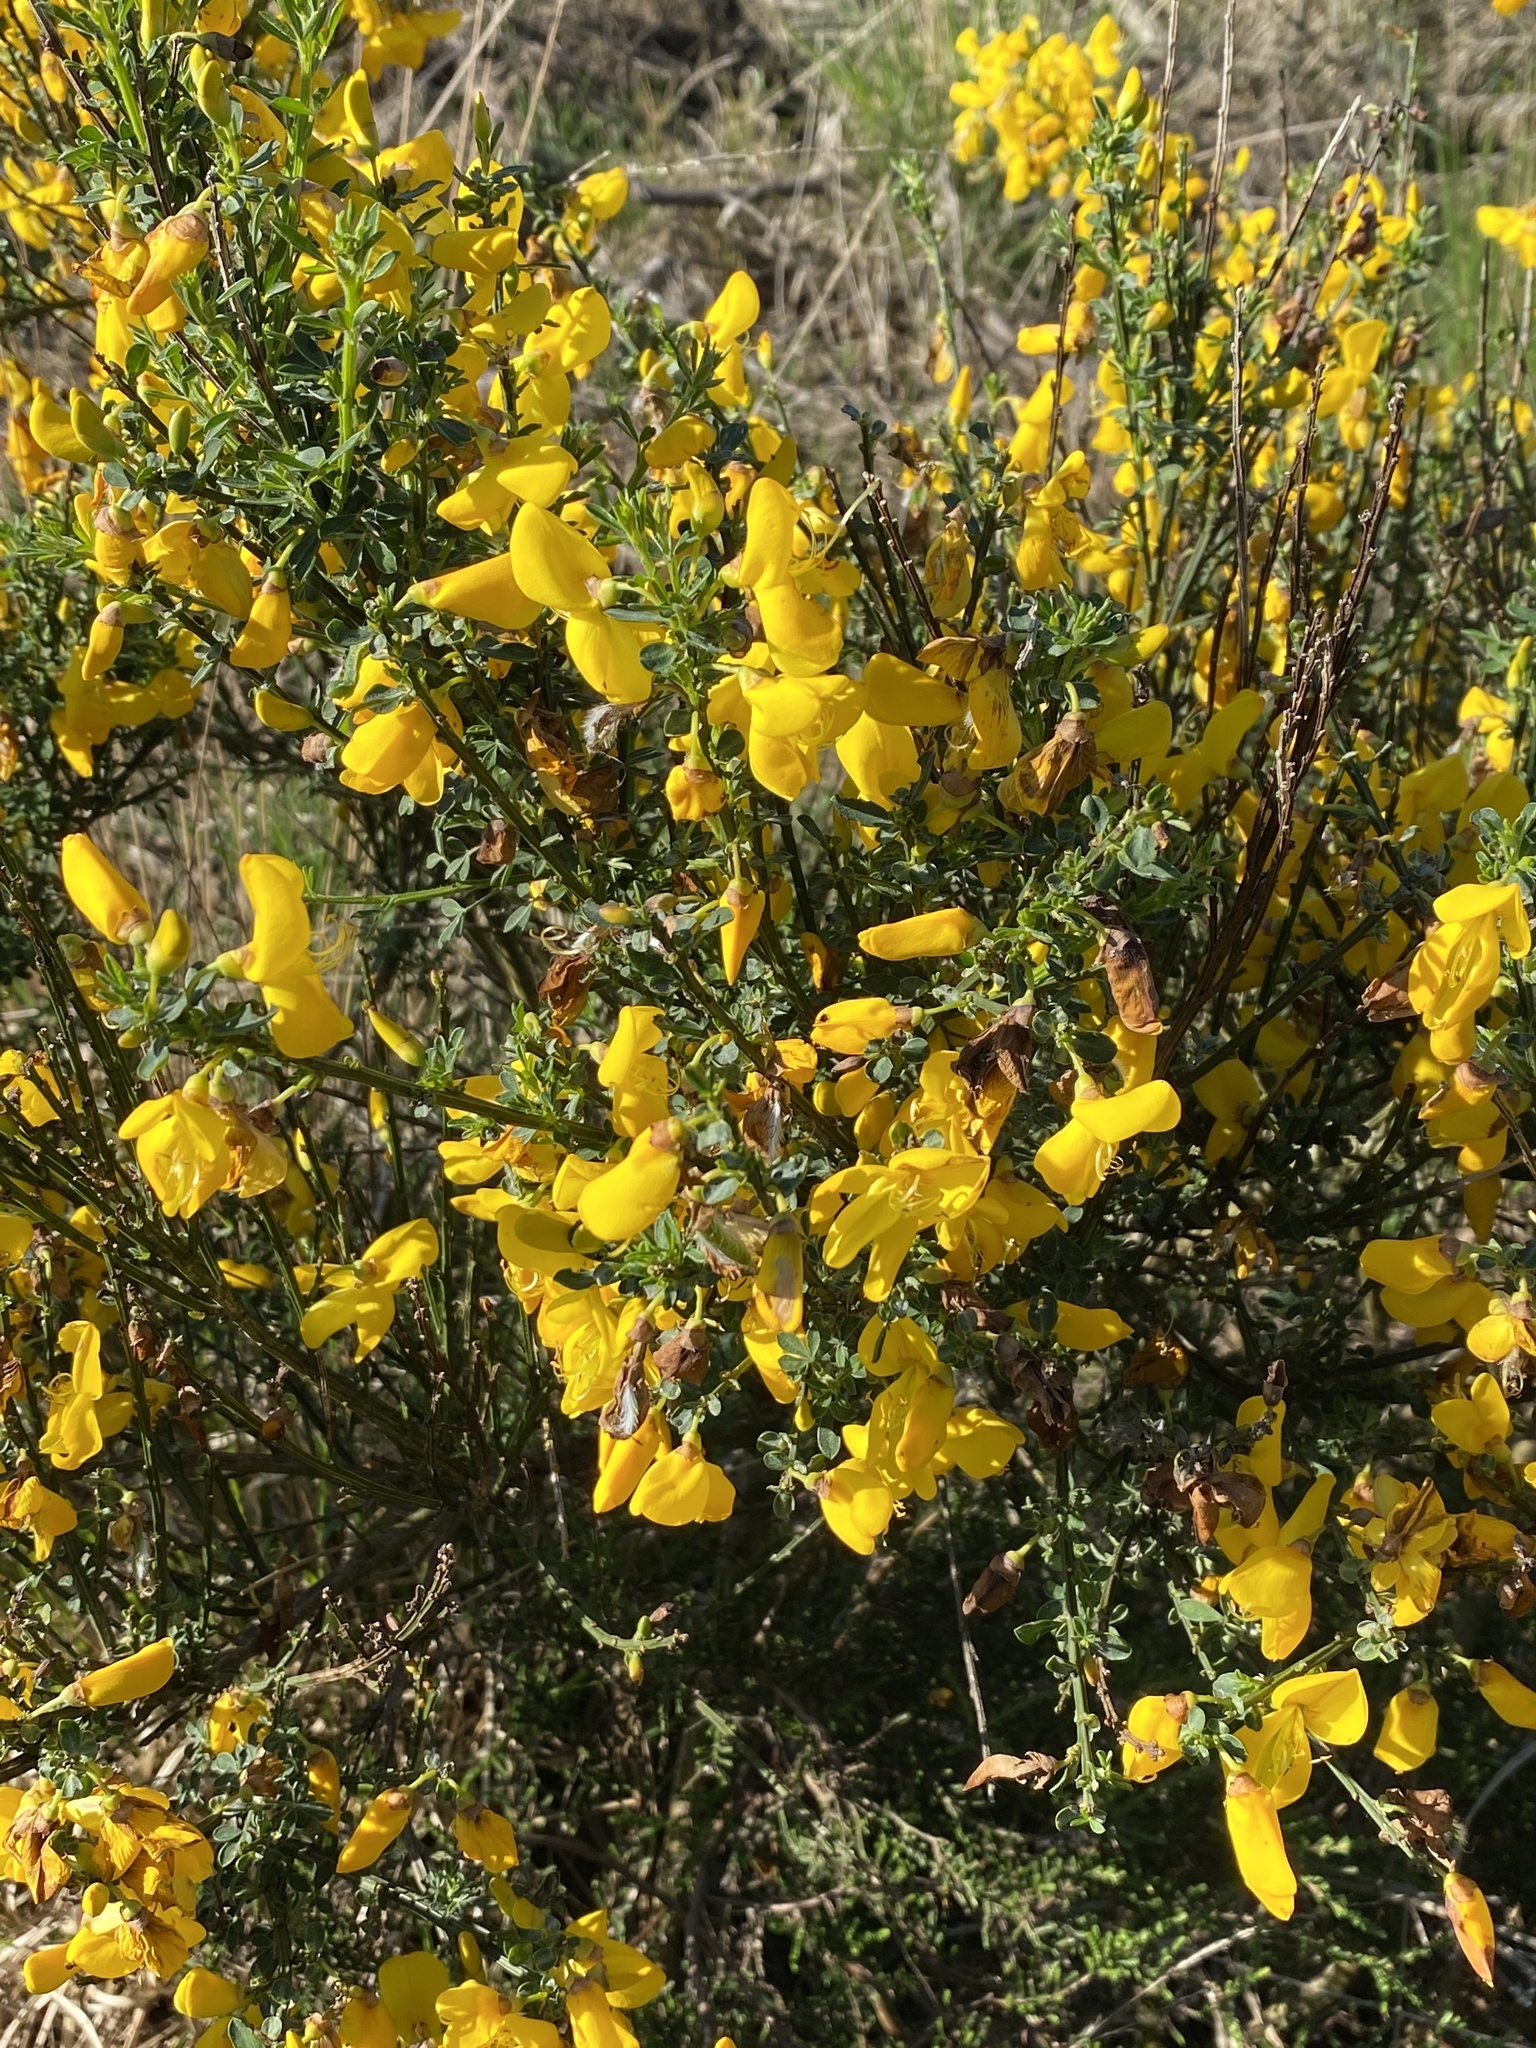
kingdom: Plantae
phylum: Tracheophyta
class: Magnoliopsida
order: Fabales
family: Fabaceae
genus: Cytisus
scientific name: Cytisus scoparius
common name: Scotch broom
